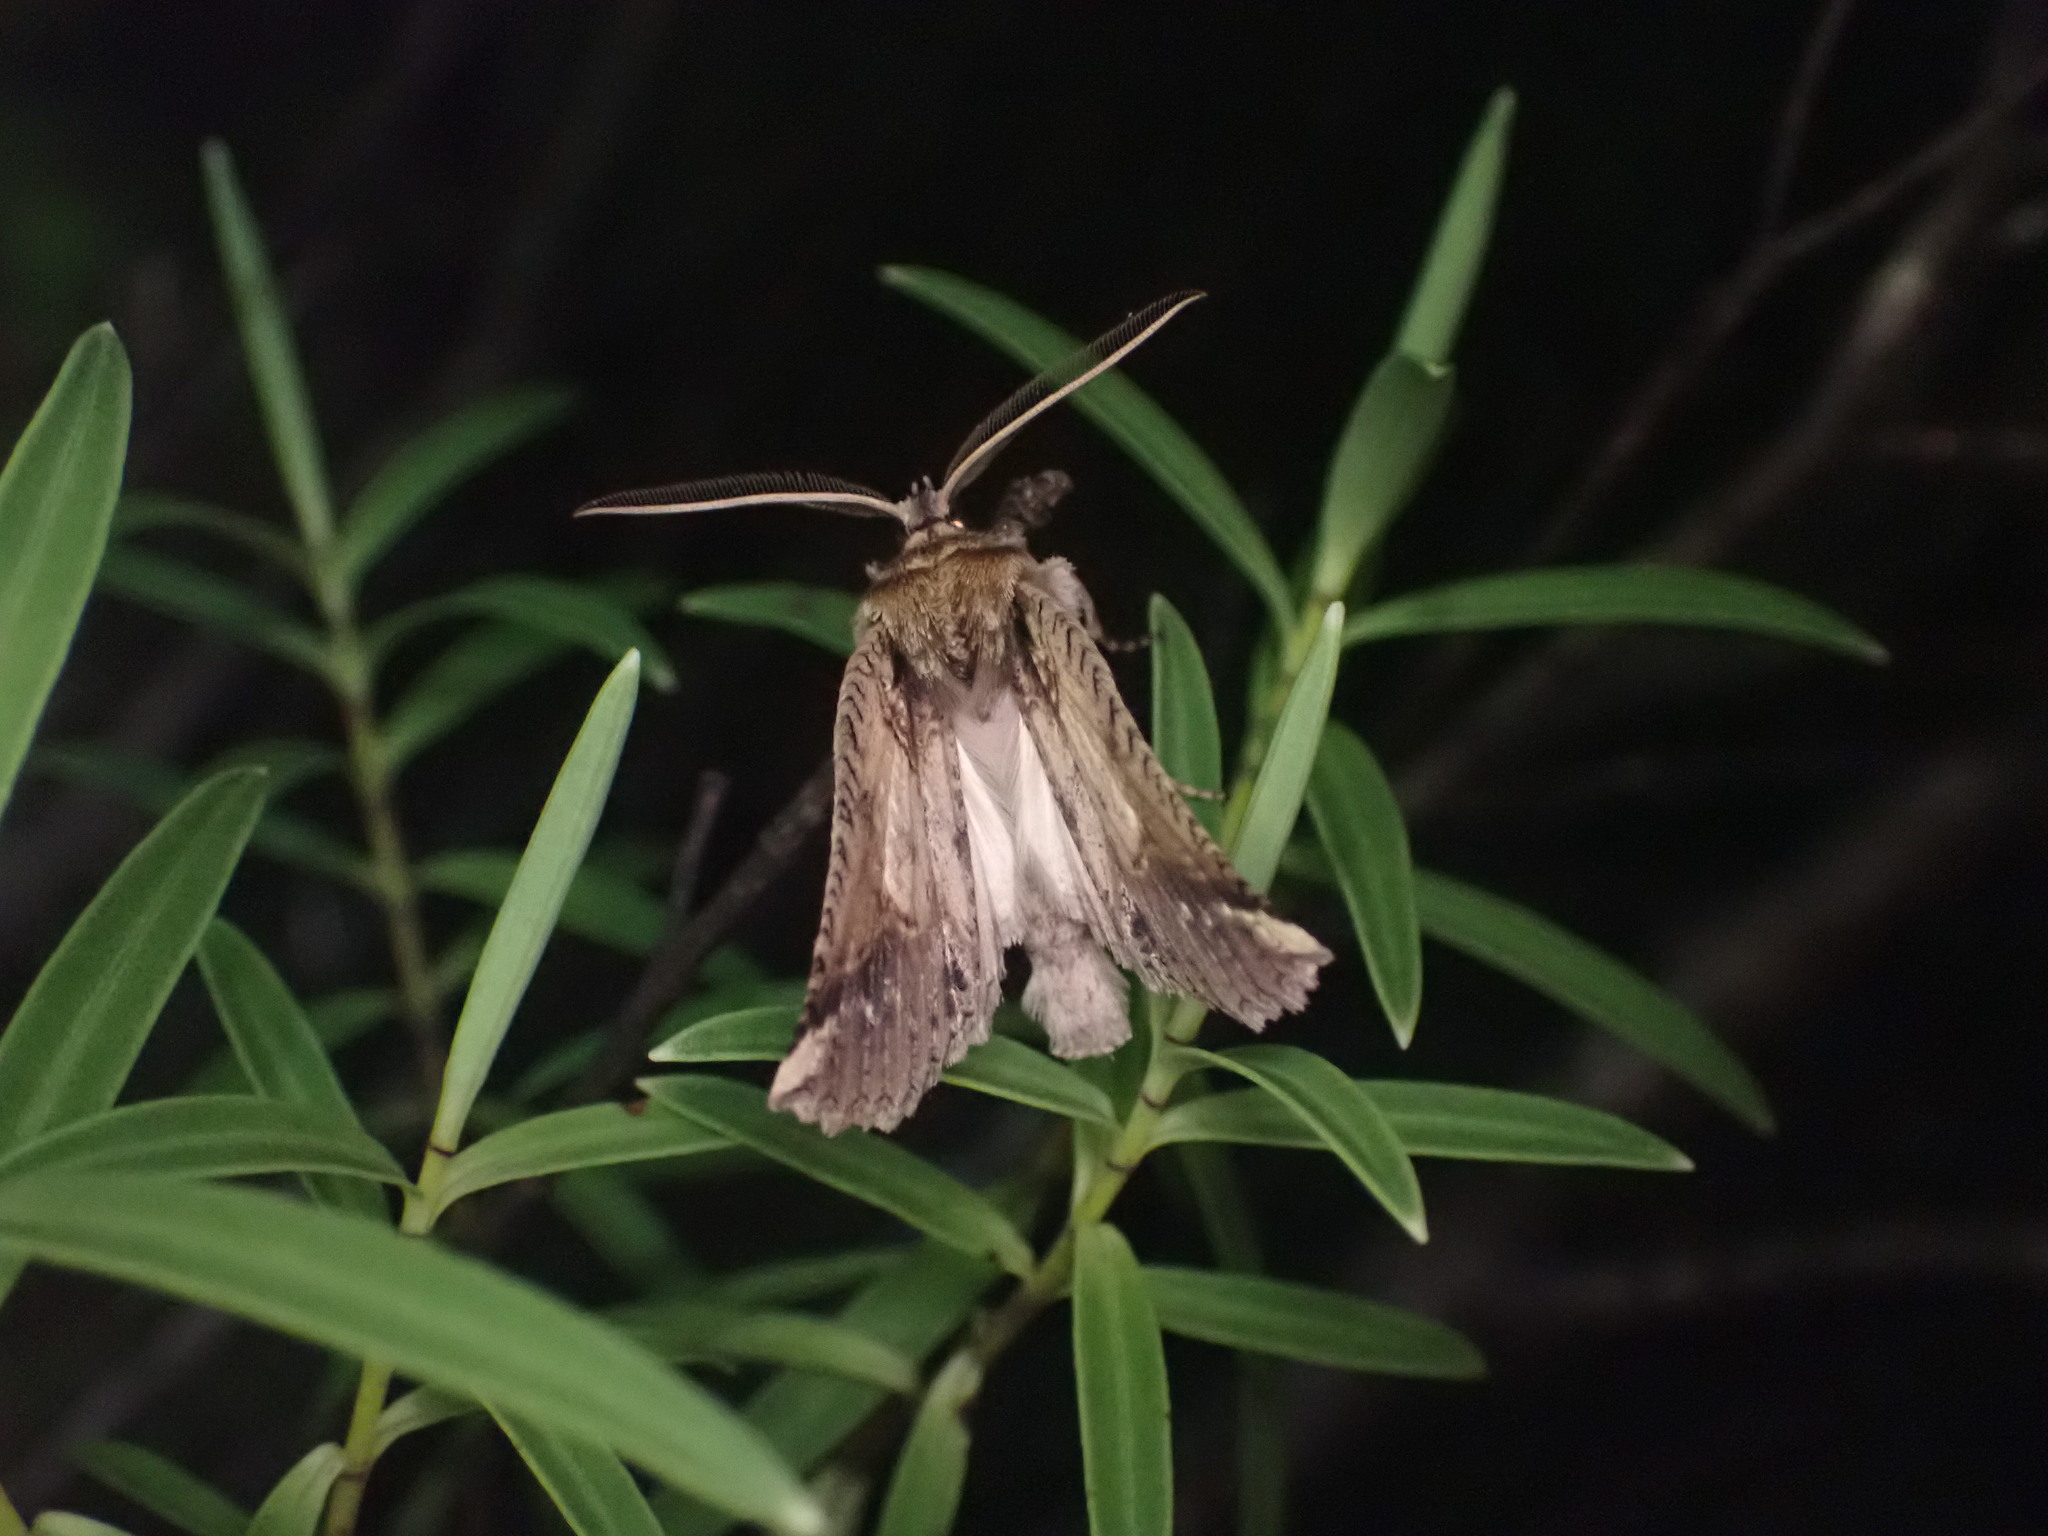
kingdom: Animalia
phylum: Arthropoda
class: Insecta
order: Lepidoptera
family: Geometridae
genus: Declana
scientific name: Declana
